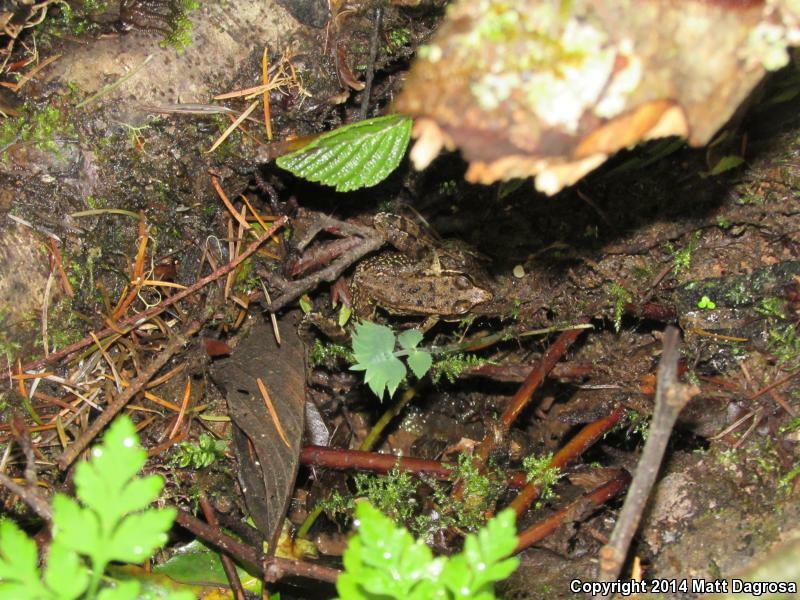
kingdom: Animalia
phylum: Chordata
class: Amphibia
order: Anura
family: Ranidae
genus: Rana
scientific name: Rana aurora
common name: Red-legged frog
